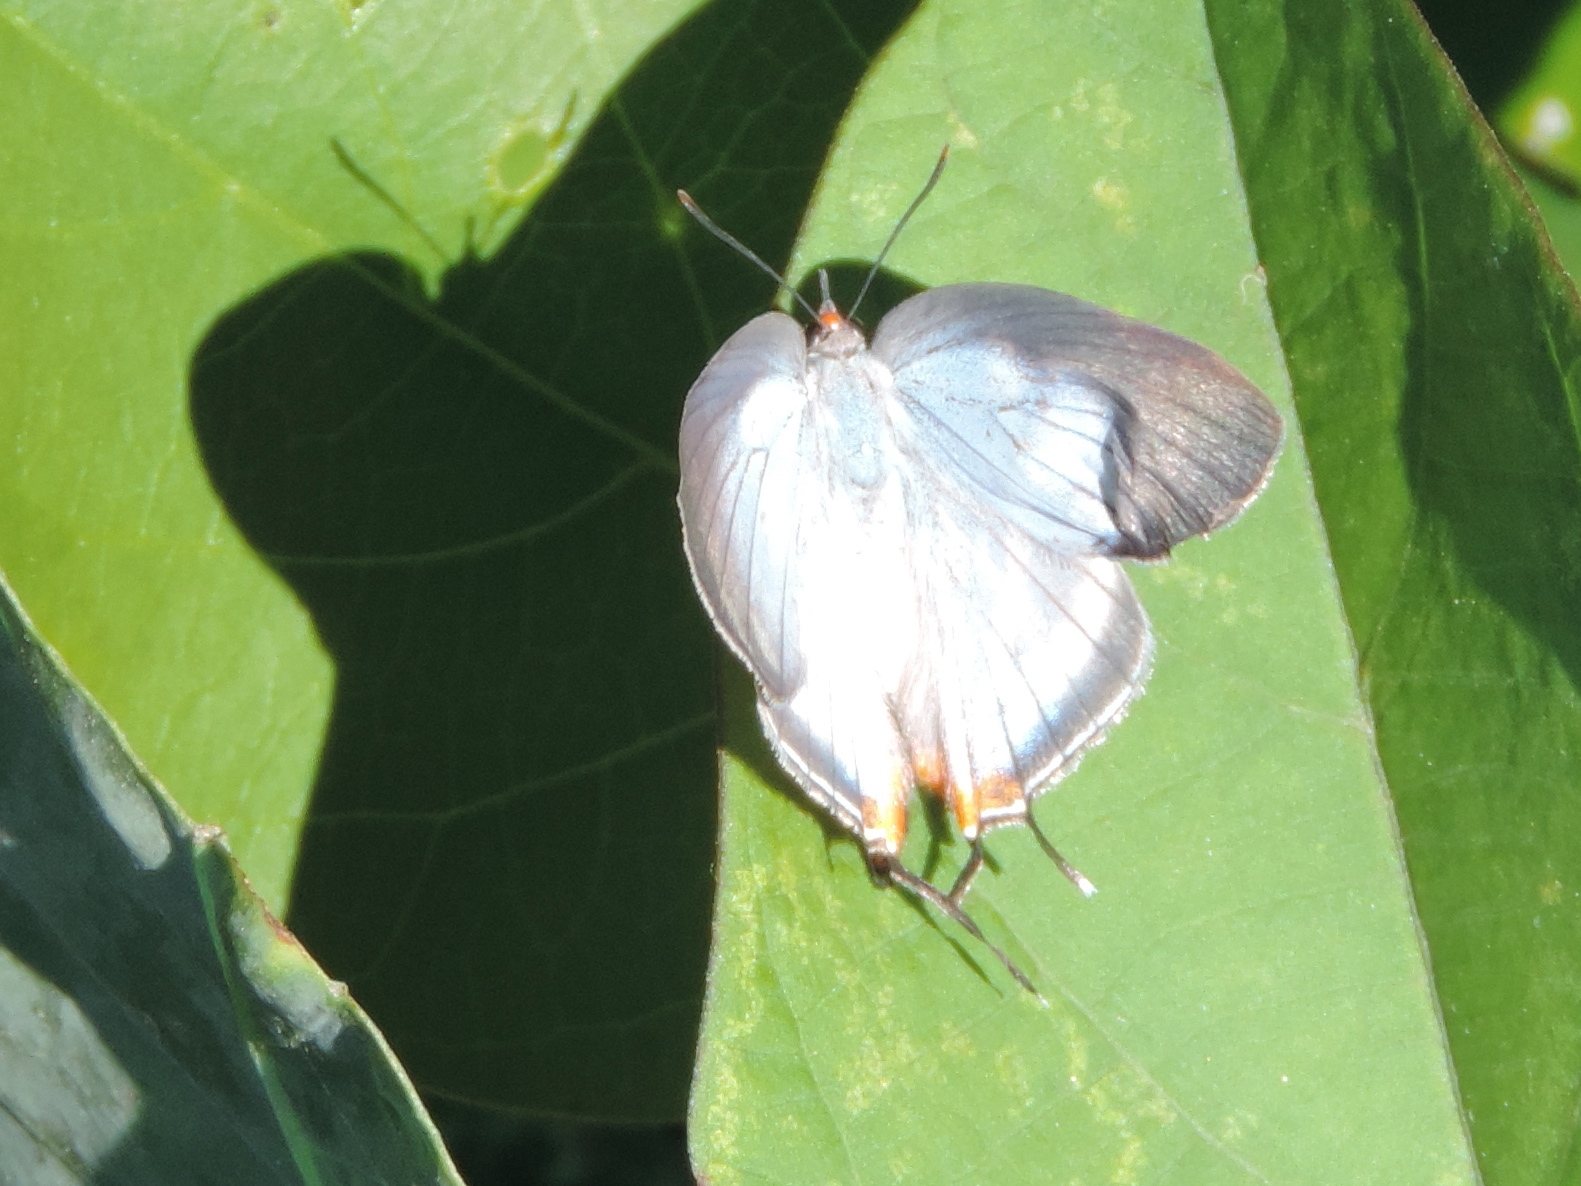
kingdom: Animalia
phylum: Arthropoda
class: Insecta
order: Lepidoptera
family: Lycaenidae
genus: Arawacus
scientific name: Arawacus sito
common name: Fine-lined hairstreak
